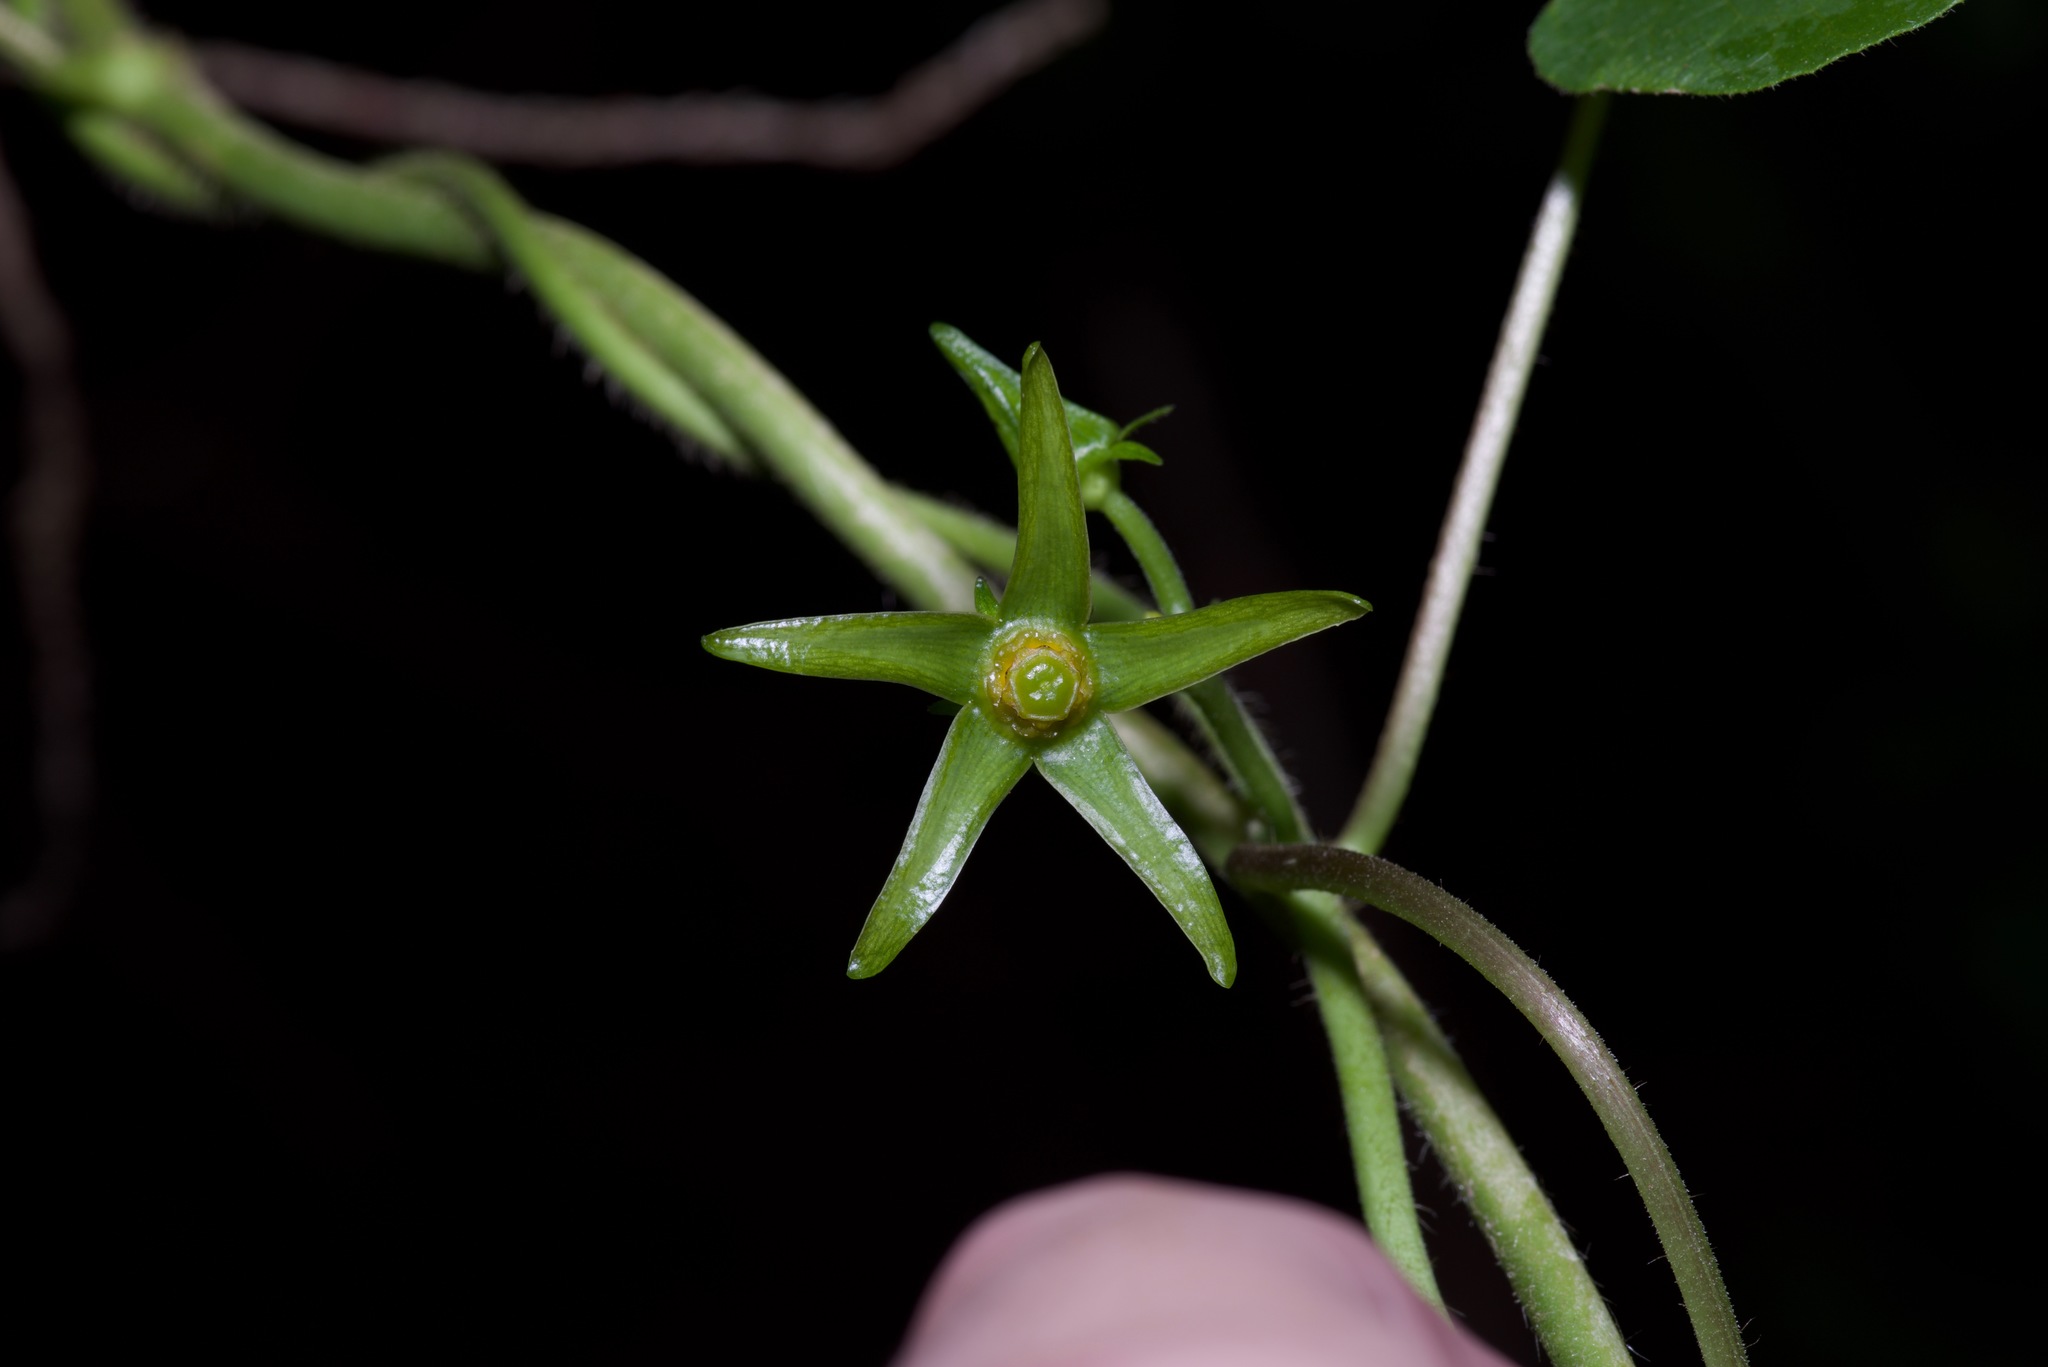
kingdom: Plantae
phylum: Tracheophyta
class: Magnoliopsida
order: Gentianales
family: Apocynaceae
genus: Gonolobus
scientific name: Gonolobus suberosus
